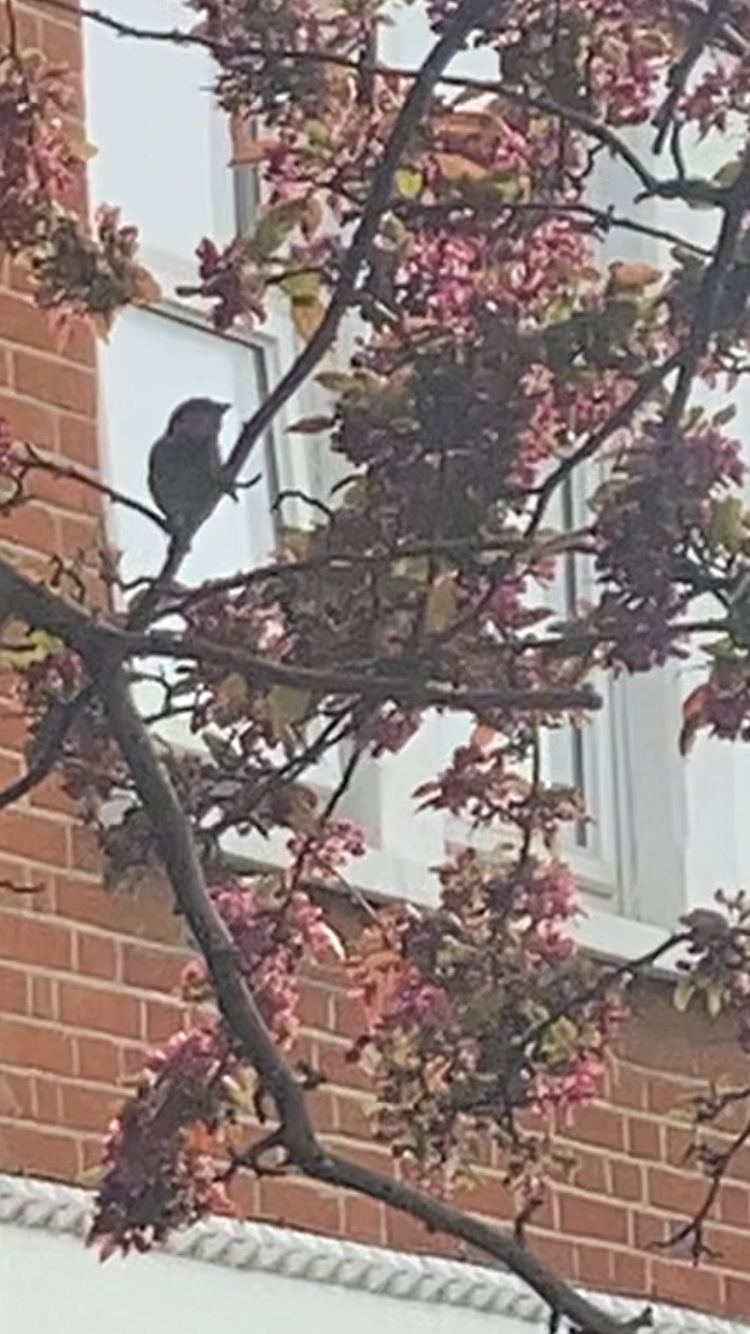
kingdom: Animalia
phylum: Chordata
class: Aves
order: Passeriformes
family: Passeridae
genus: Passer
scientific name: Passer domesticus
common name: House sparrow
